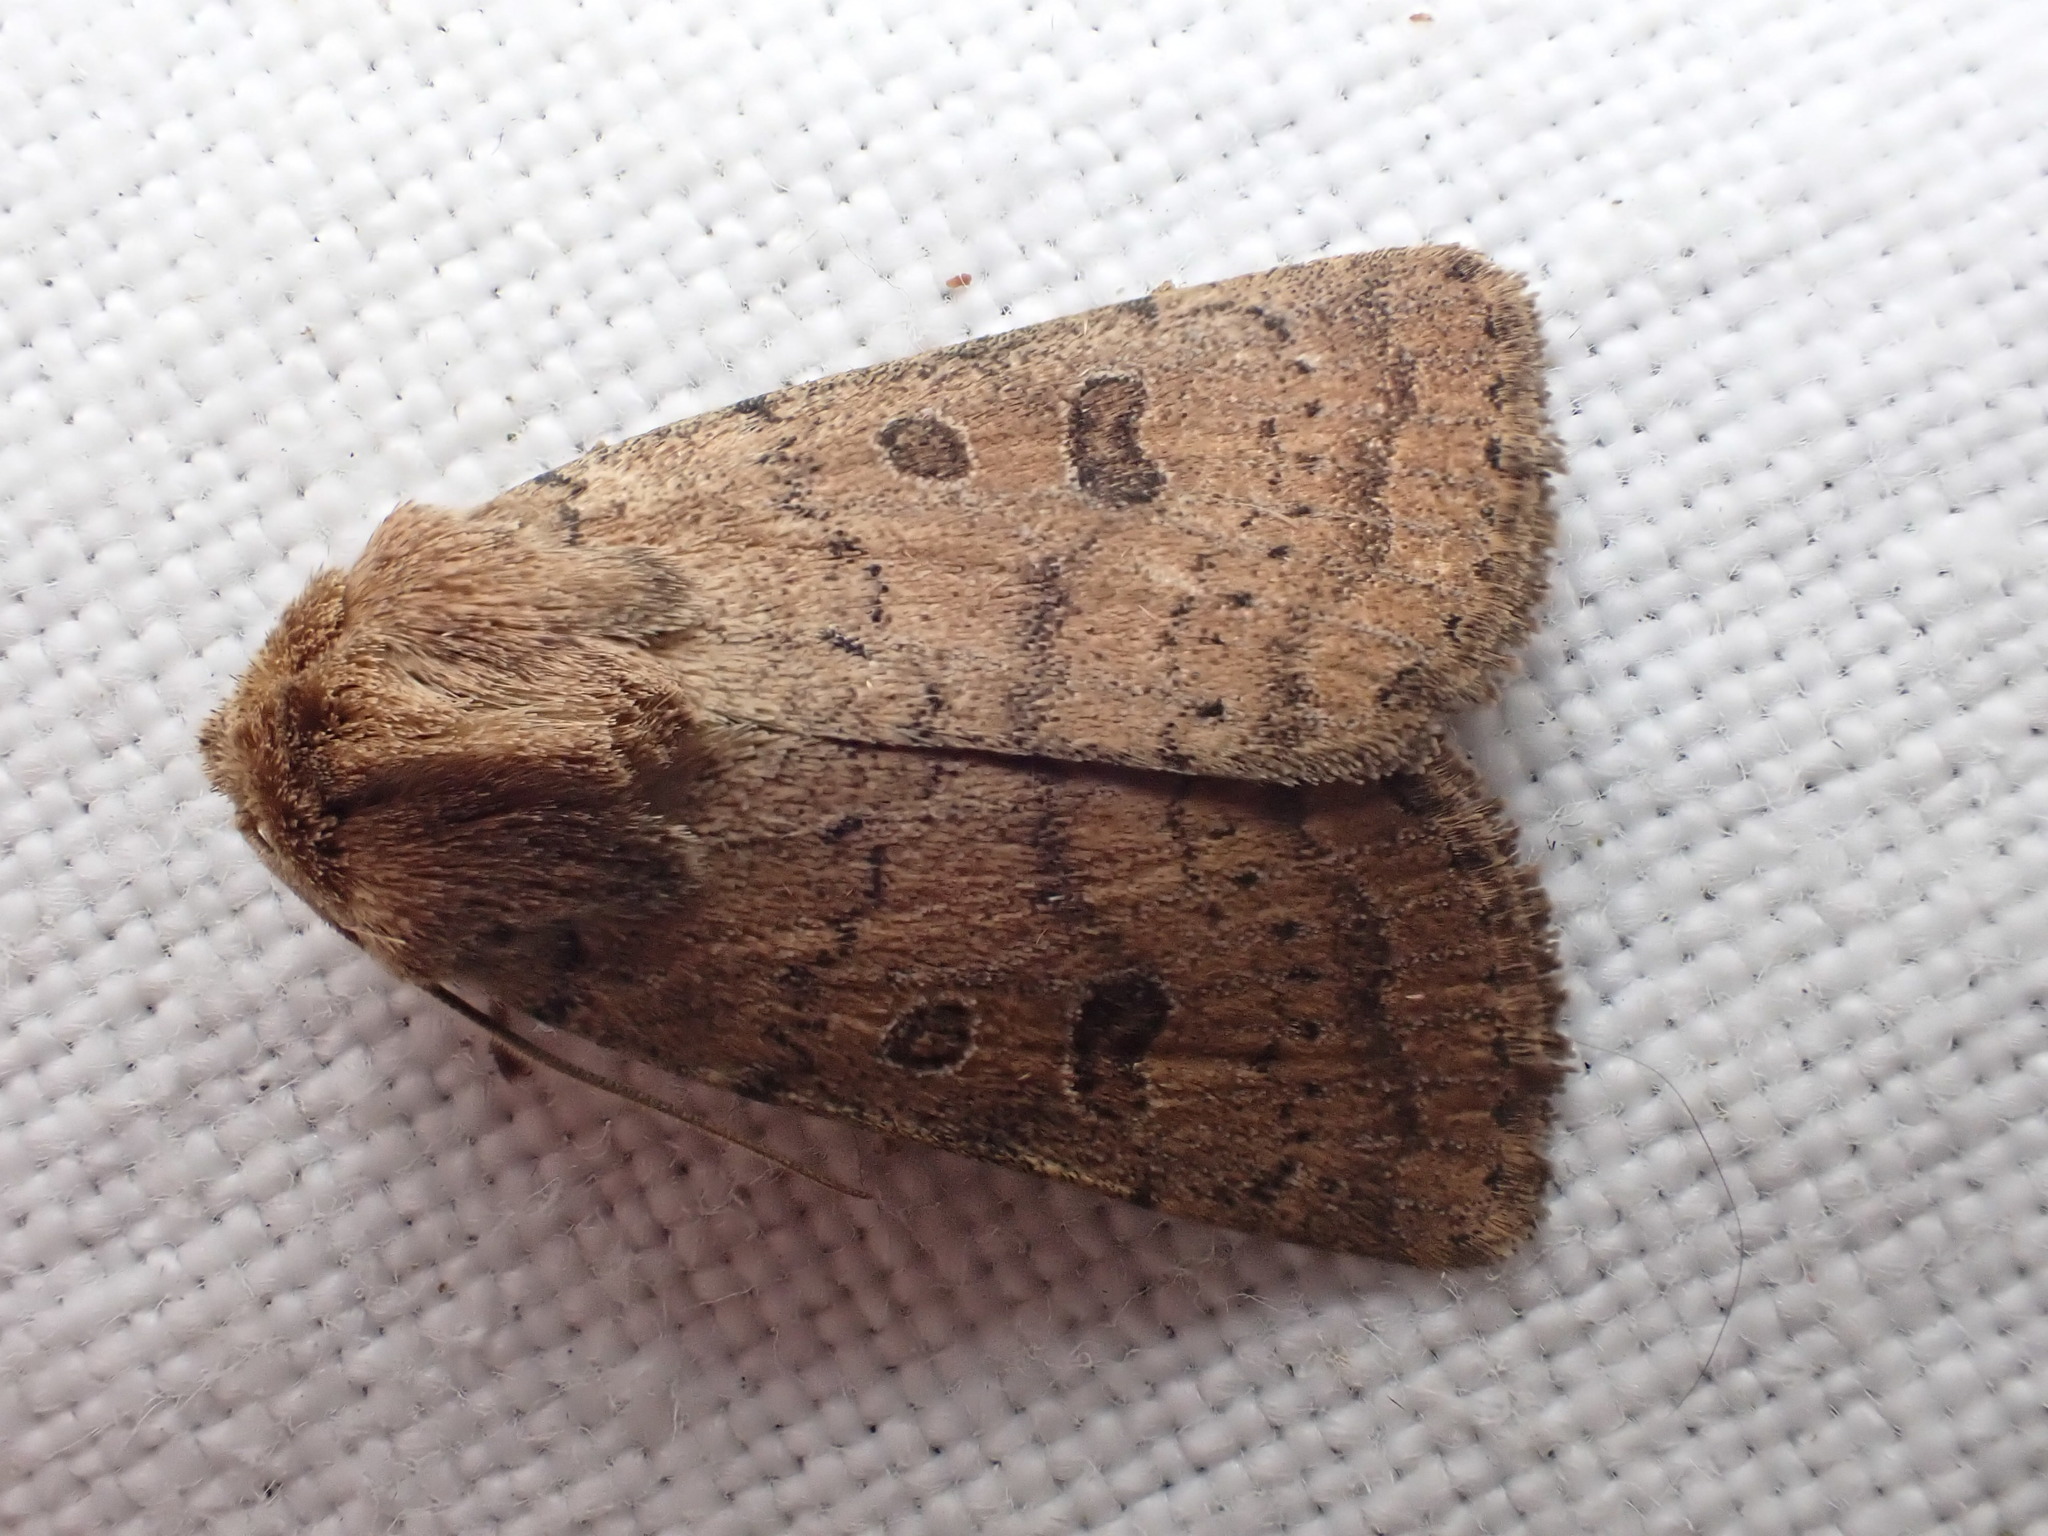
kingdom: Animalia
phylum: Arthropoda
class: Insecta
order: Lepidoptera
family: Noctuidae
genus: Hoplodrina
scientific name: Hoplodrina octogenaria
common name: Uncertain
